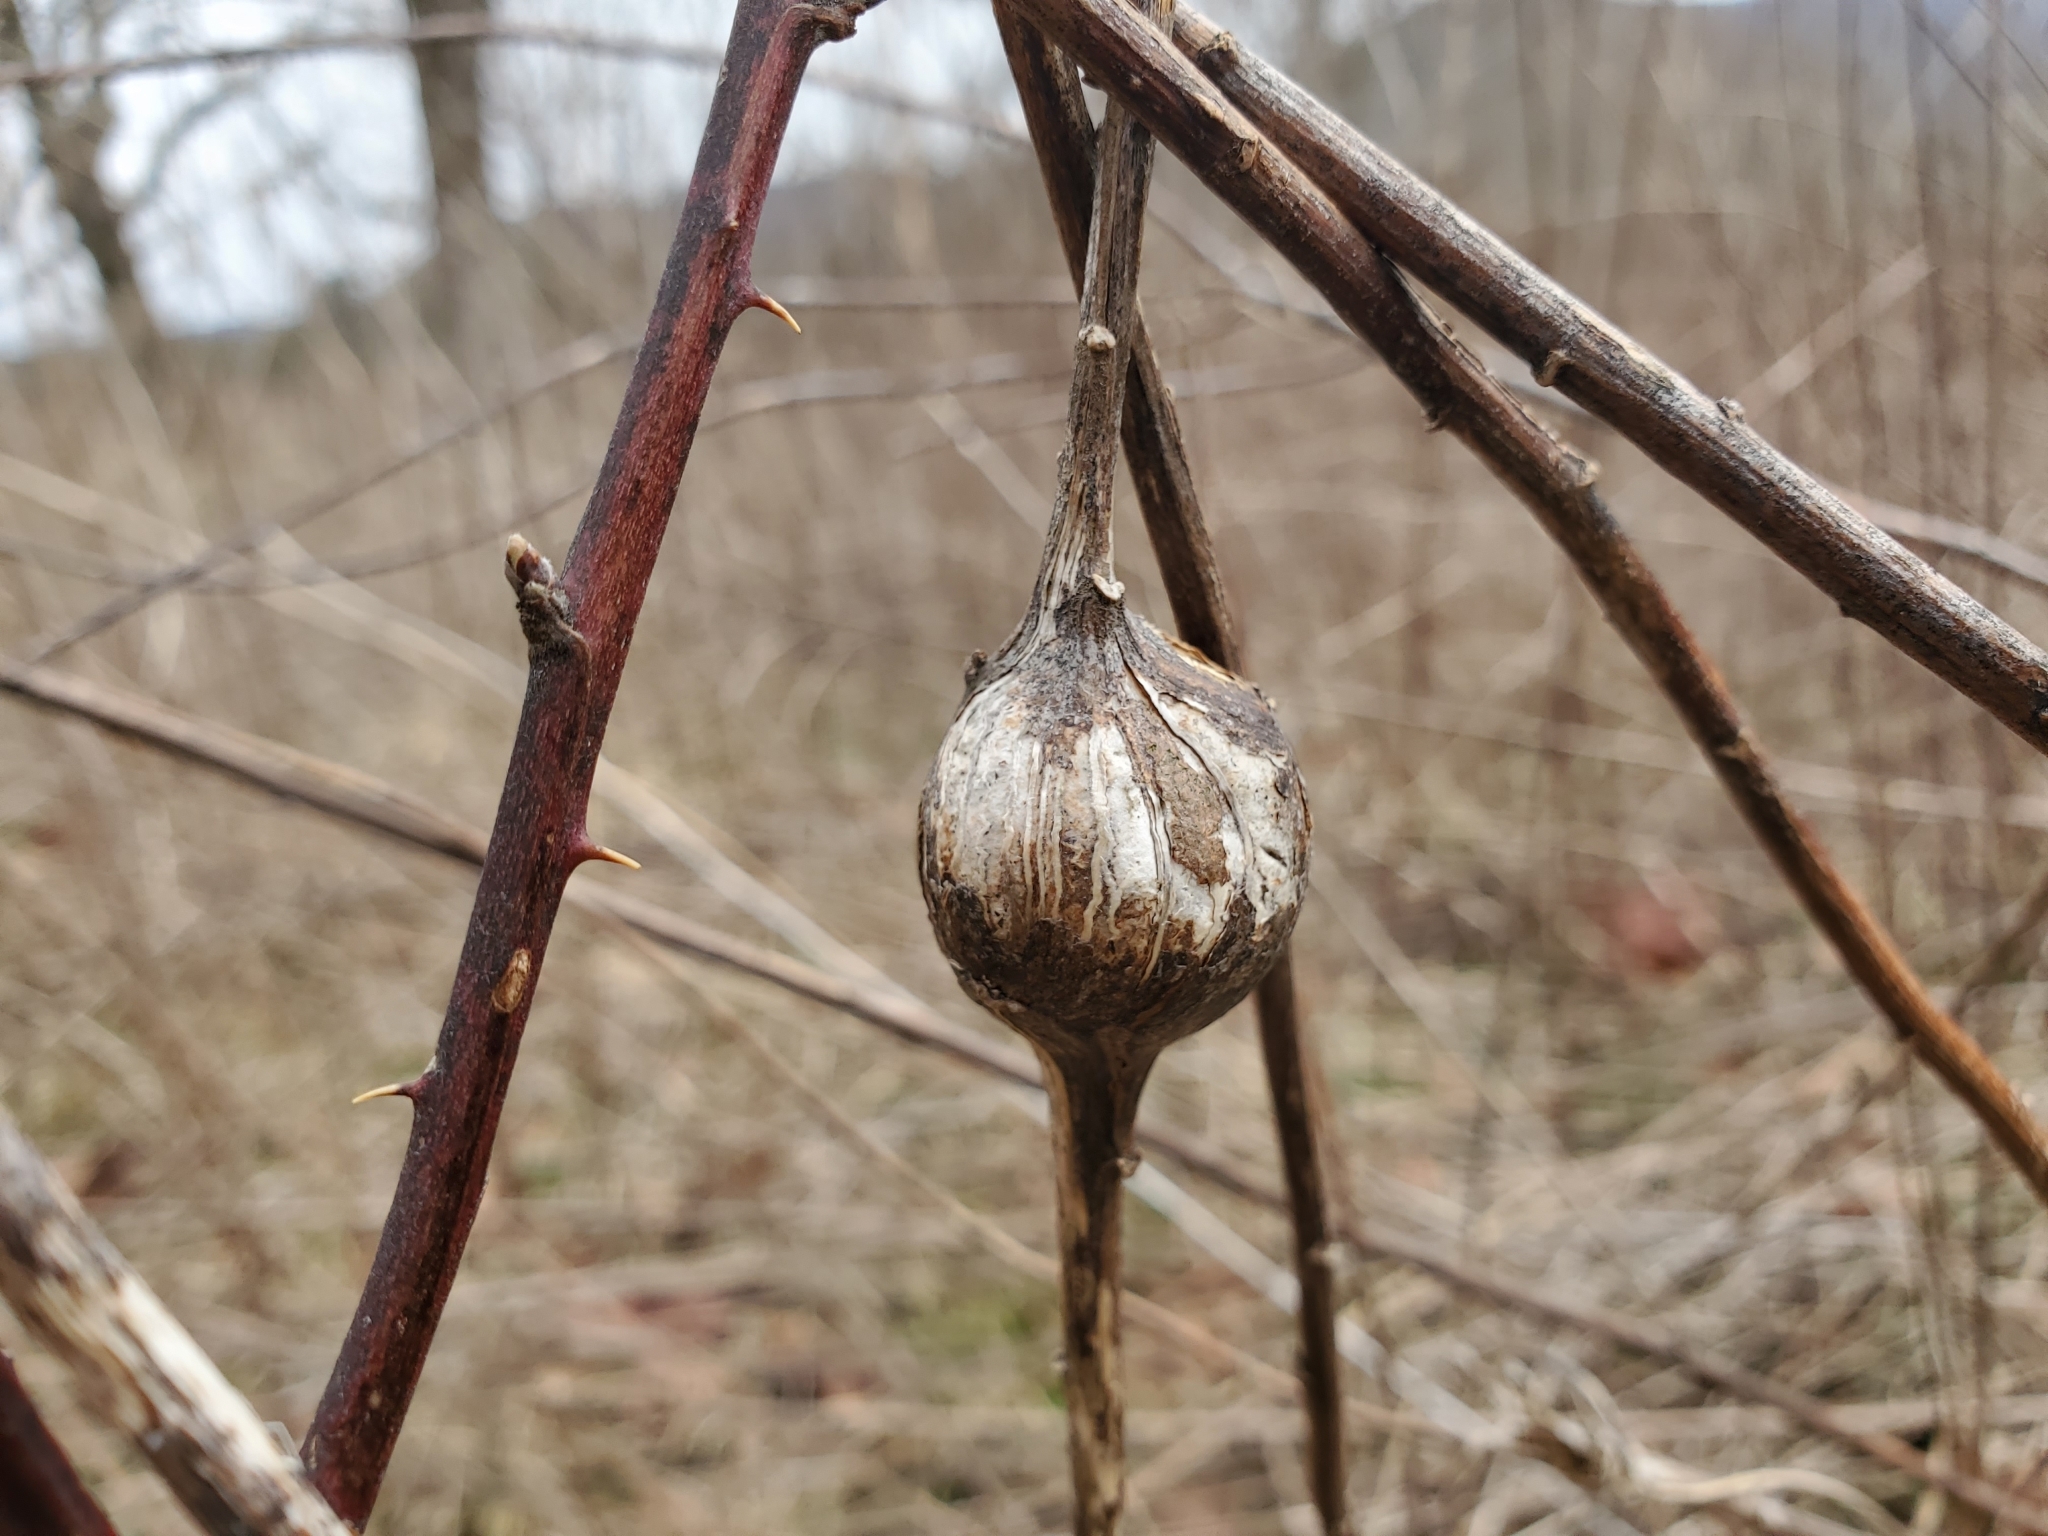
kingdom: Animalia
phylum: Arthropoda
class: Insecta
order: Diptera
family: Tephritidae
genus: Eurosta
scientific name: Eurosta solidaginis
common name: Goldenrod gall fly
